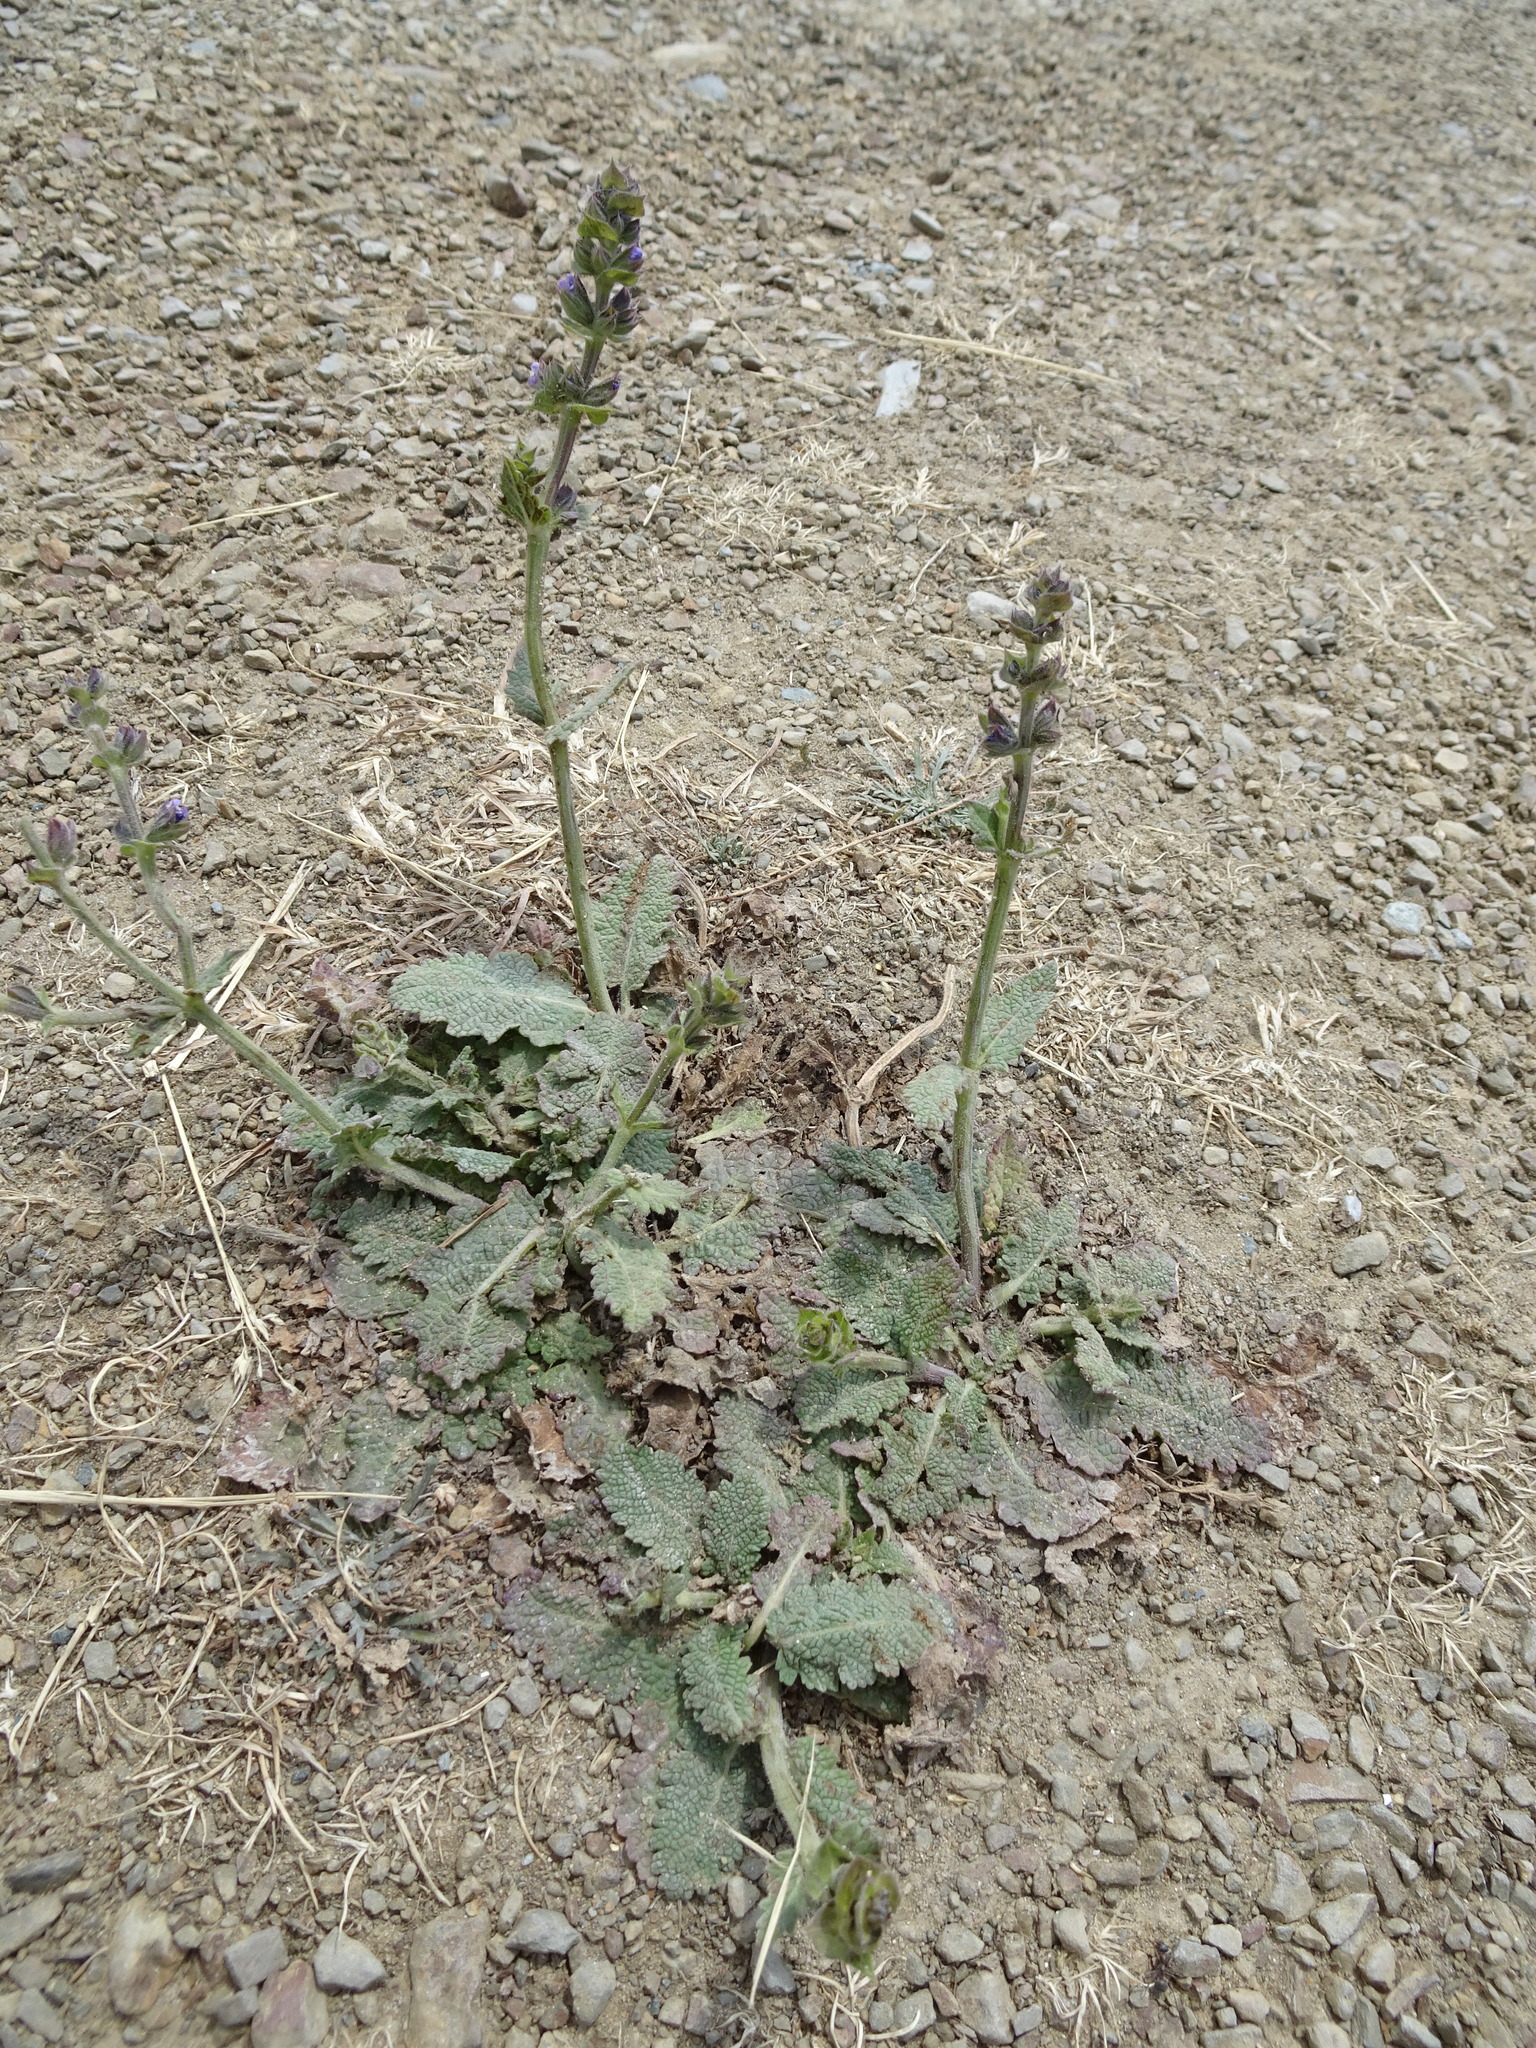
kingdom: Plantae
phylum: Tracheophyta
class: Magnoliopsida
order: Lamiales
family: Lamiaceae
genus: Salvia
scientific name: Salvia verbenaca
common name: Wild clary
